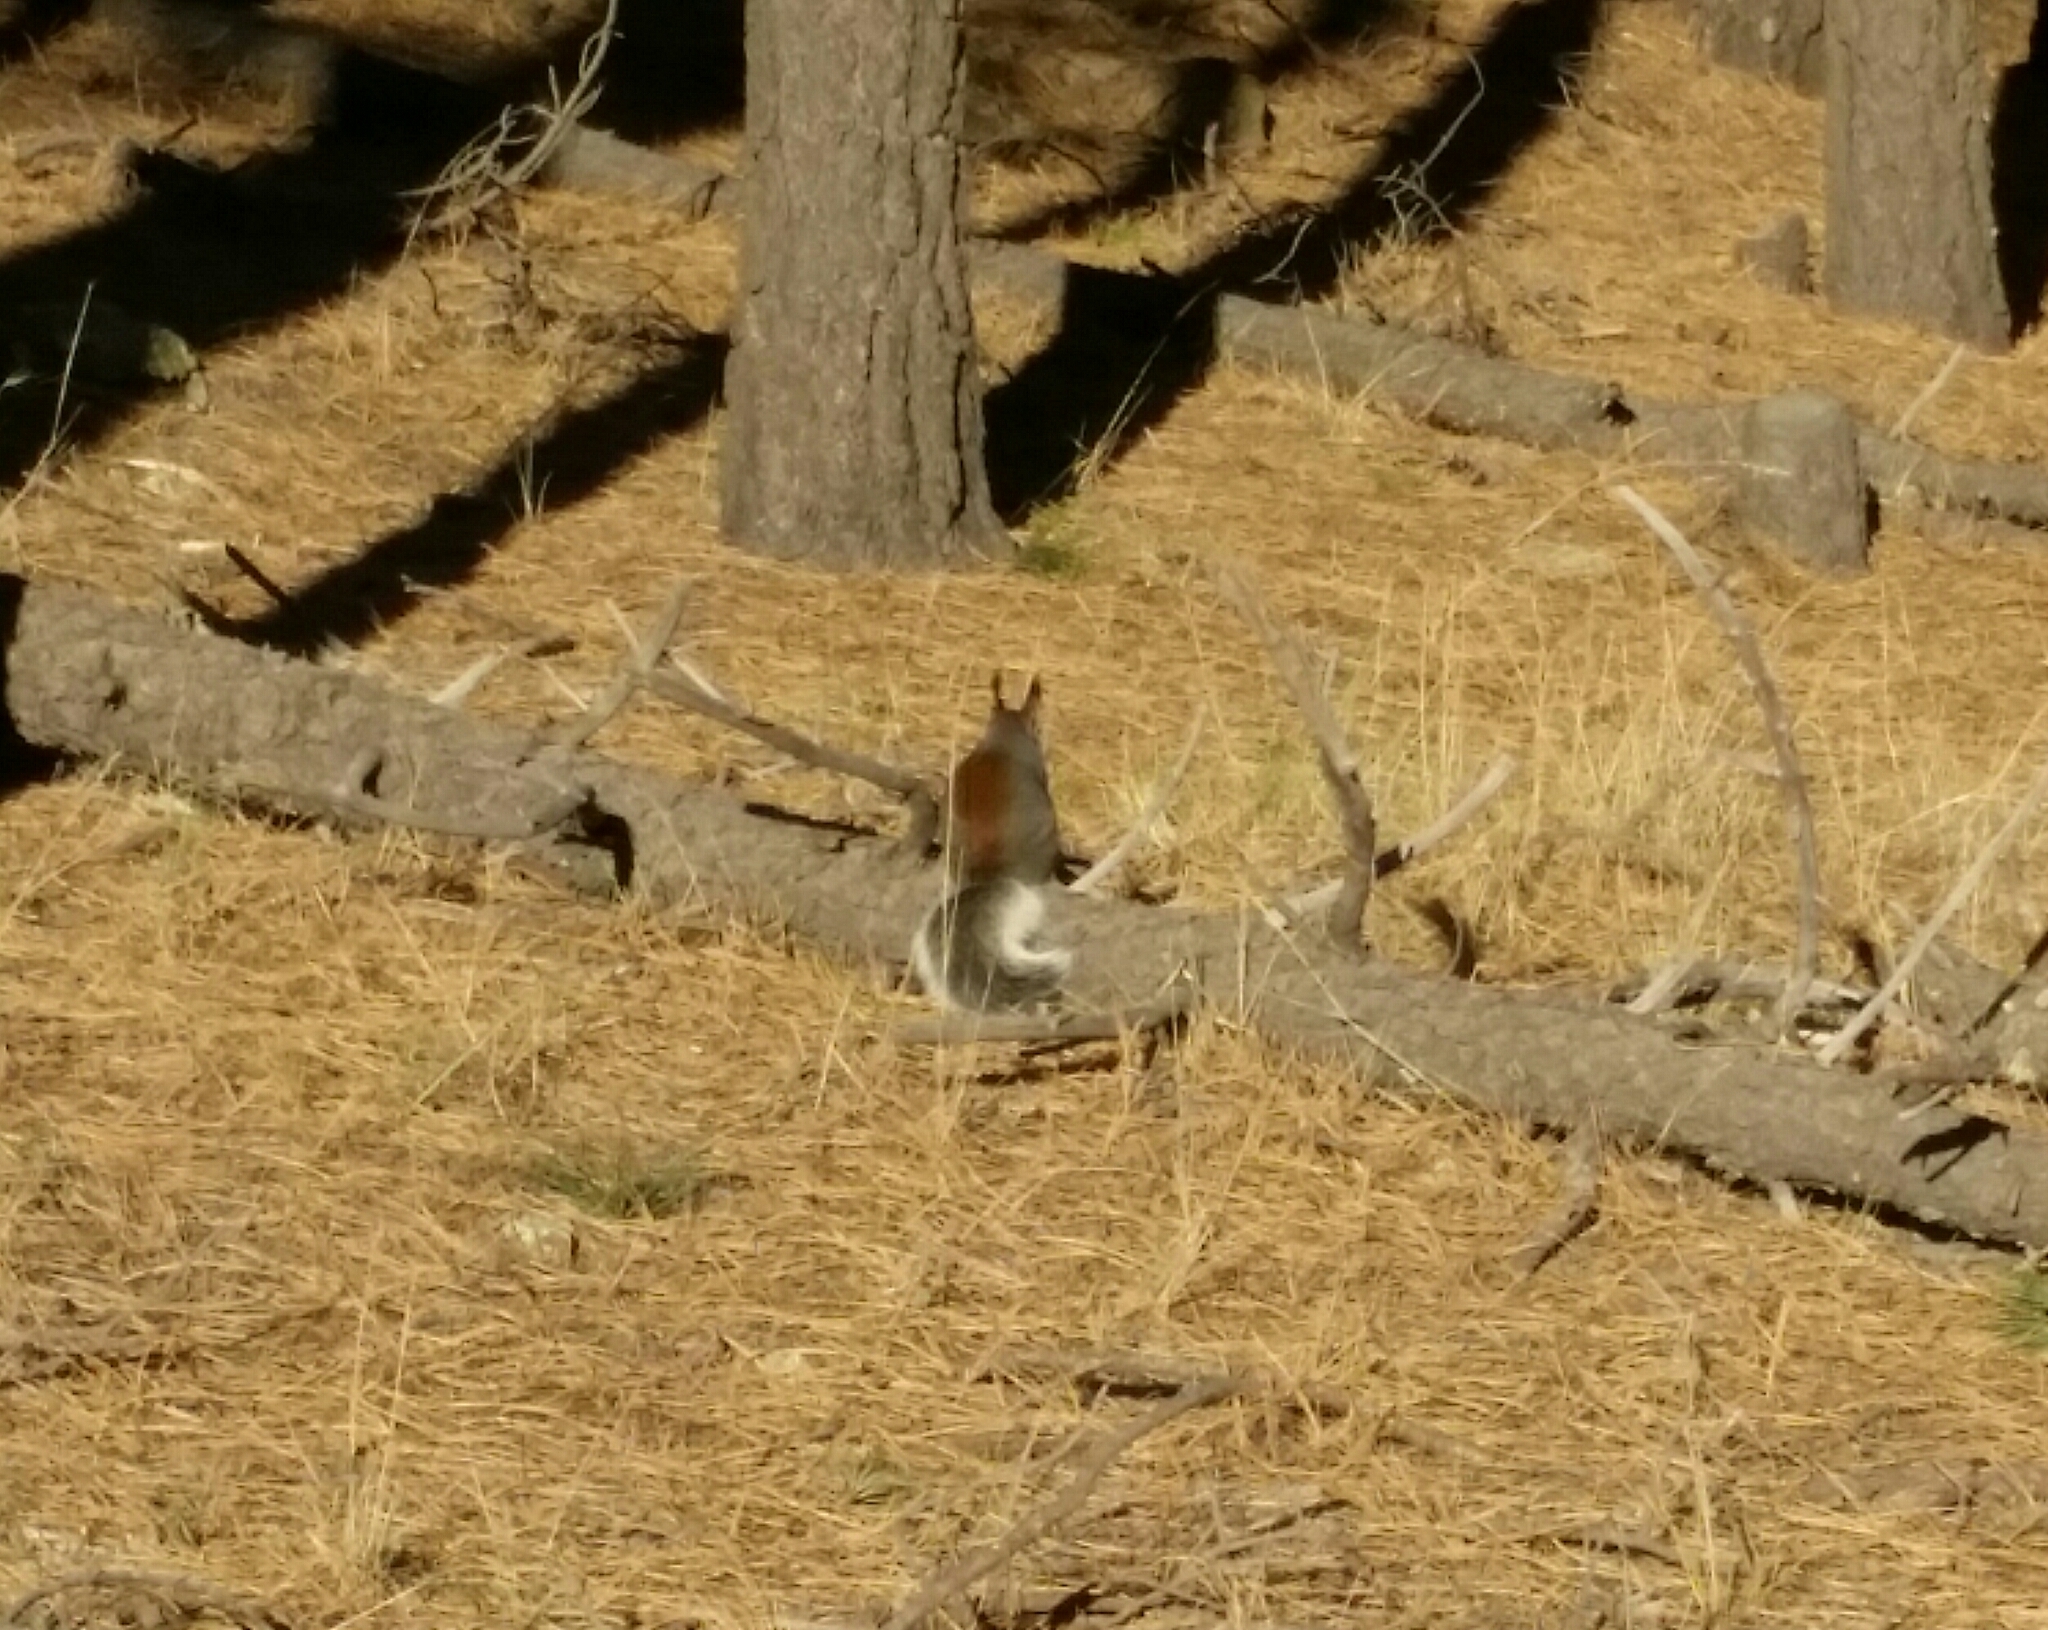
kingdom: Animalia
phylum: Chordata
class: Mammalia
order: Rodentia
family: Sciuridae
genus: Sciurus
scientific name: Sciurus aberti
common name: Abert's squirrel
